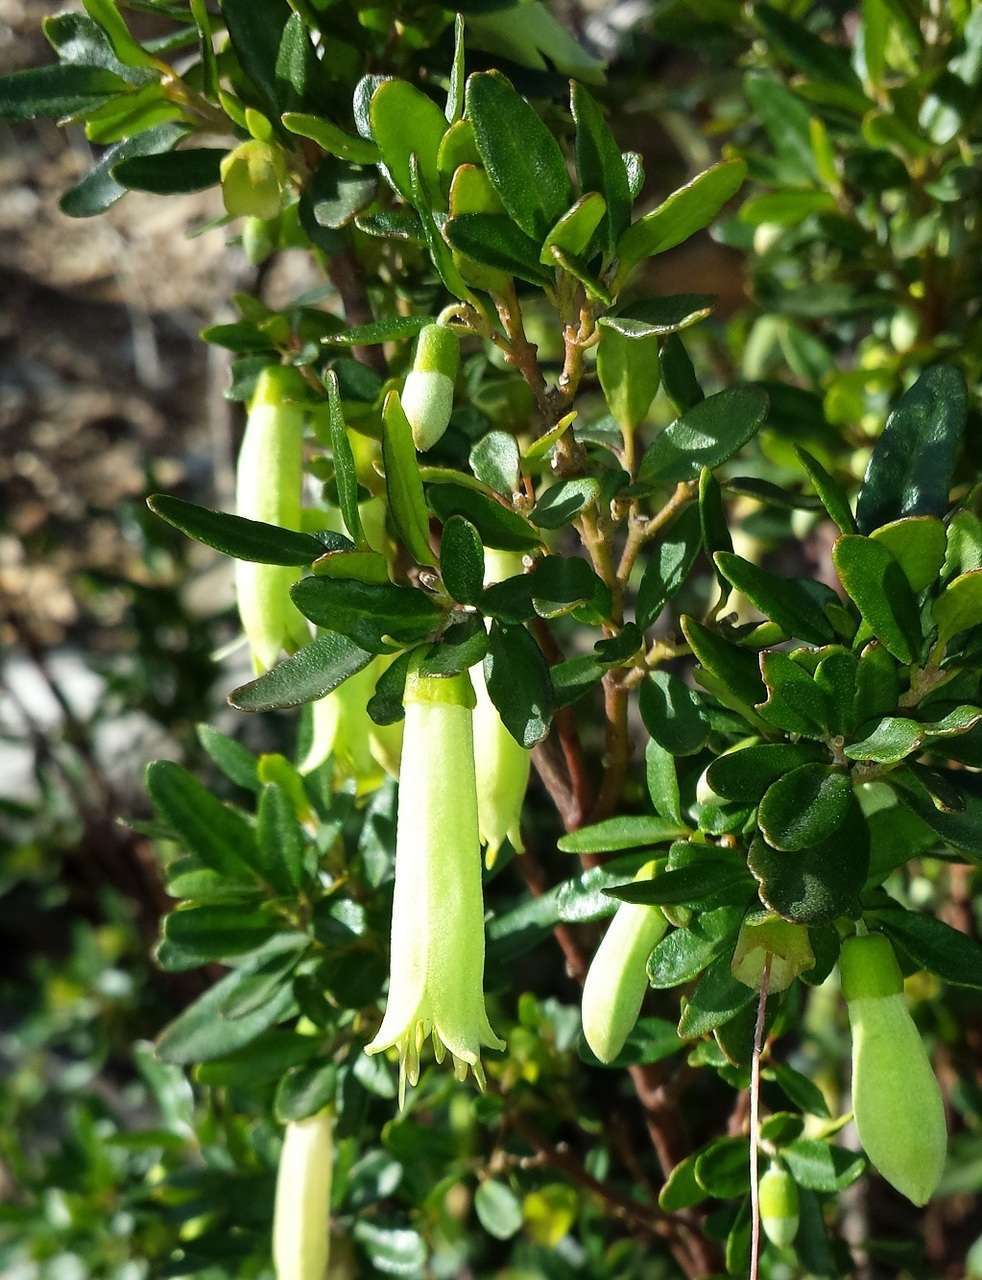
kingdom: Plantae
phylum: Tracheophyta
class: Magnoliopsida
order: Sapindales
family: Rutaceae
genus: Correa
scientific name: Correa glabra
